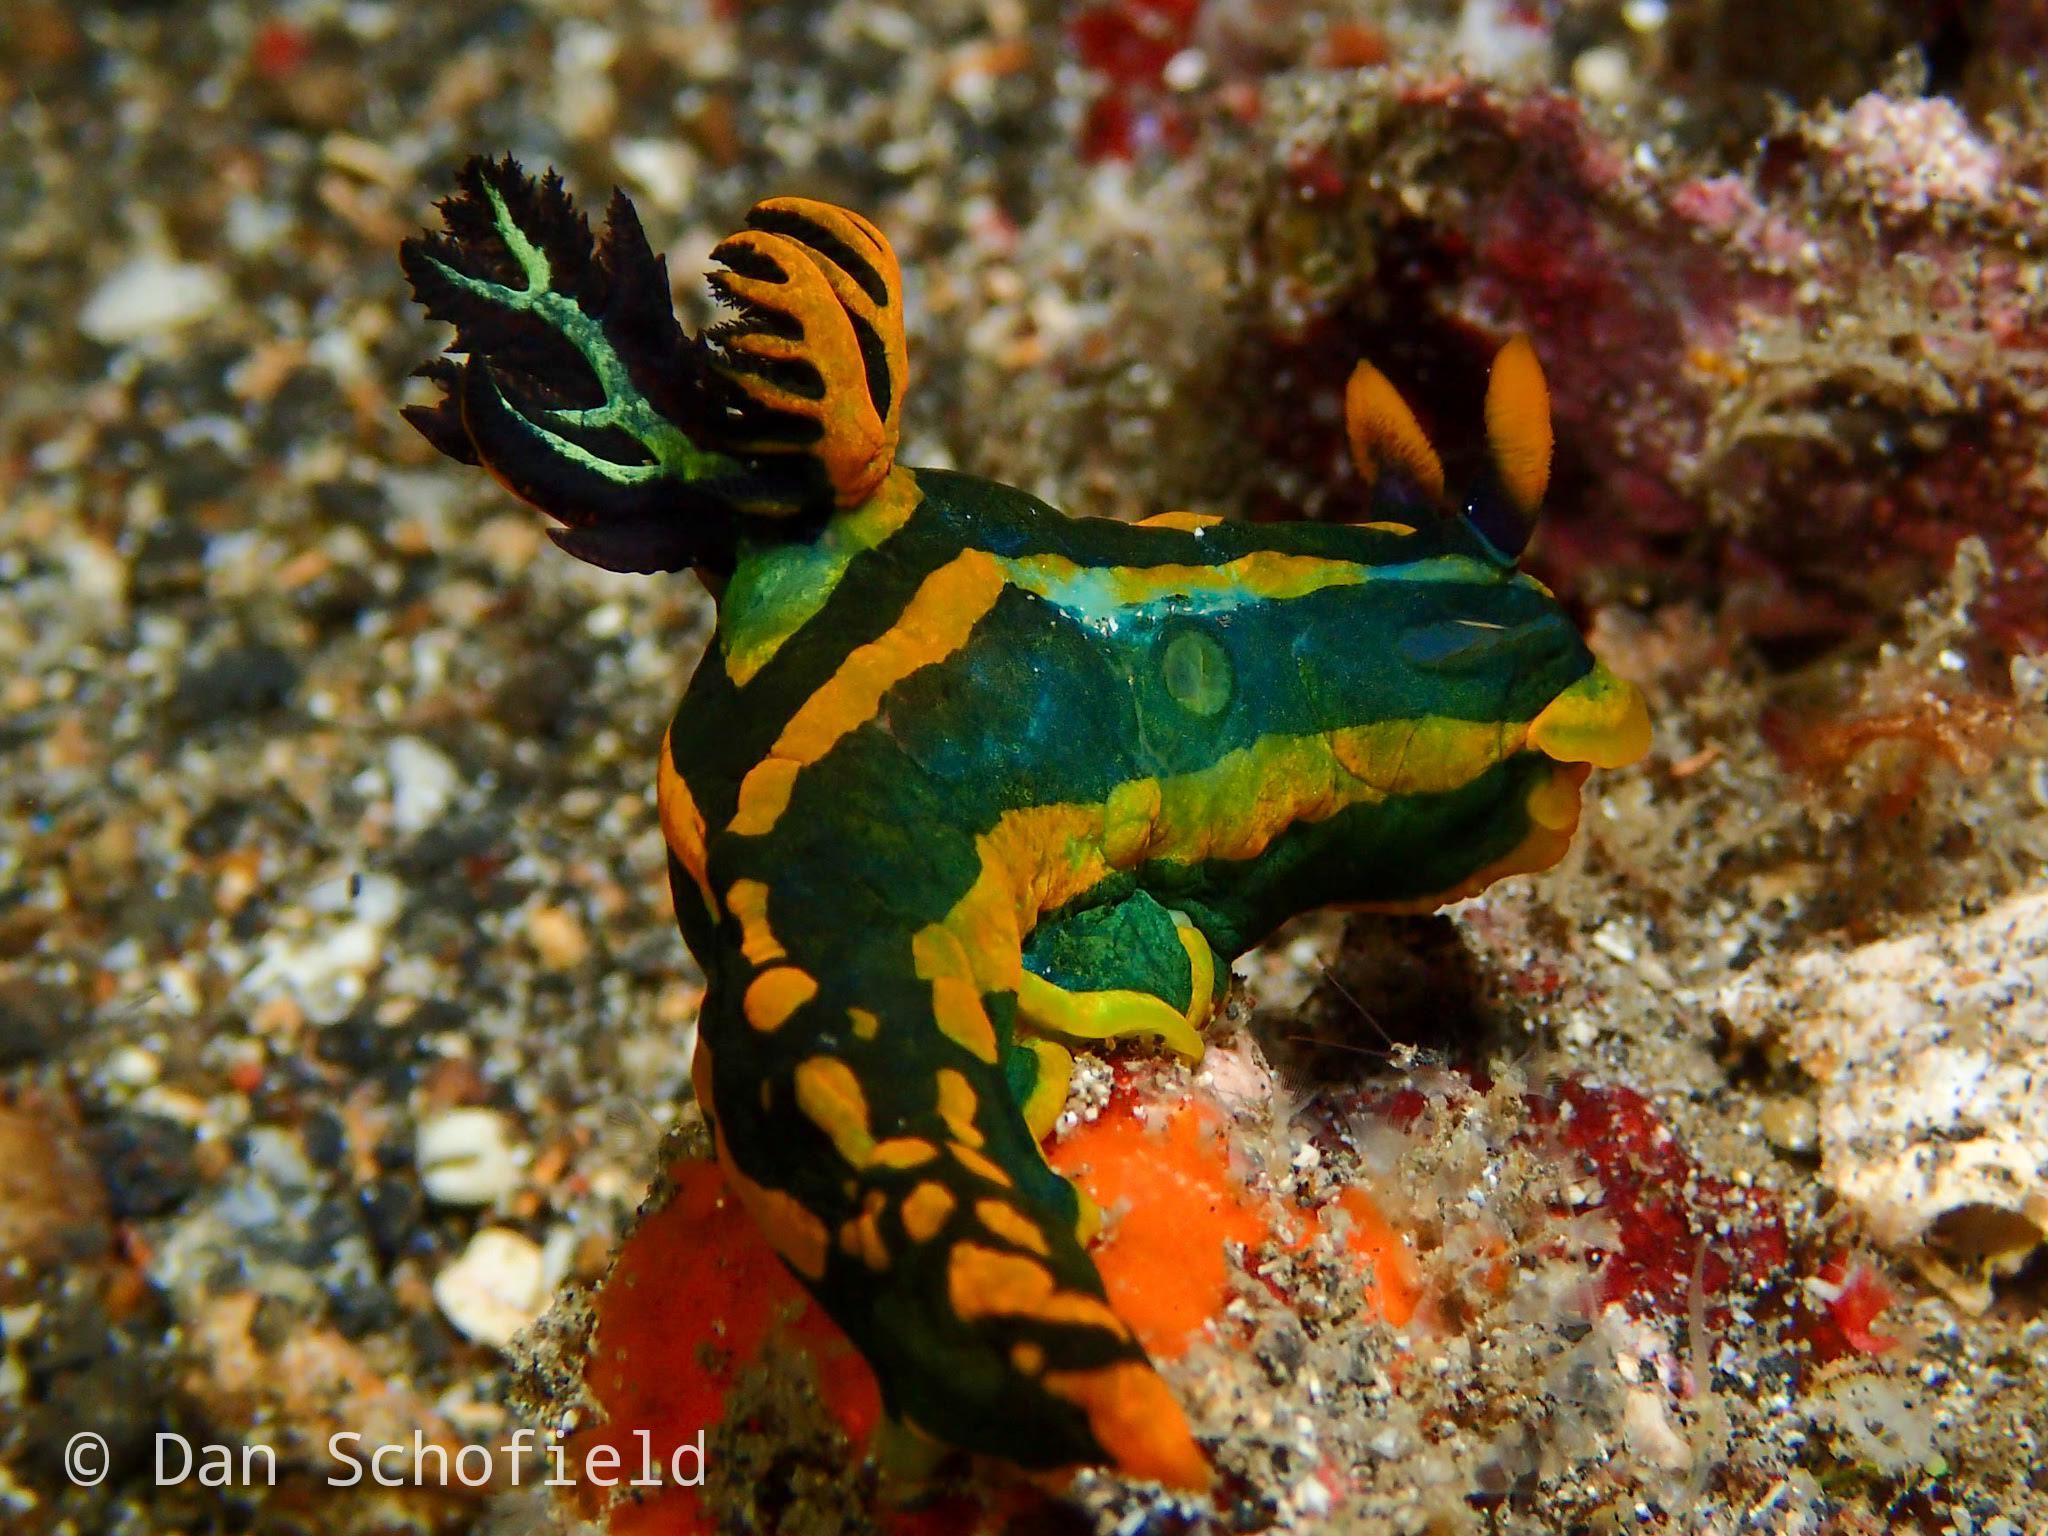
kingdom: Animalia
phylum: Mollusca
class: Gastropoda
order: Nudibranchia
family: Polyceridae
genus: Tambja
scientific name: Tambja gabrielae
